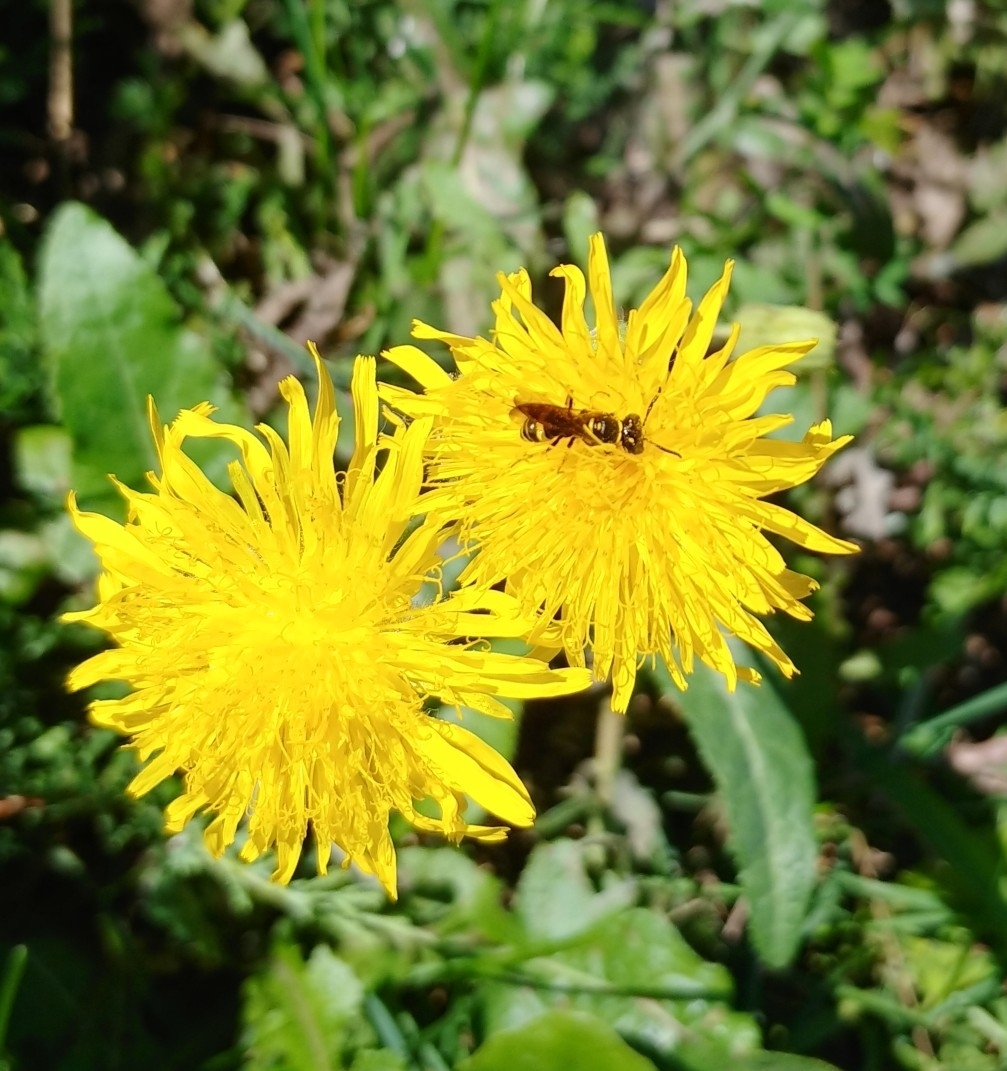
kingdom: Animalia
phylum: Arthropoda
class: Insecta
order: Hymenoptera
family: Crabronidae
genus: Philanthus
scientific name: Philanthus gibbosus
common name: Humped beewolf
